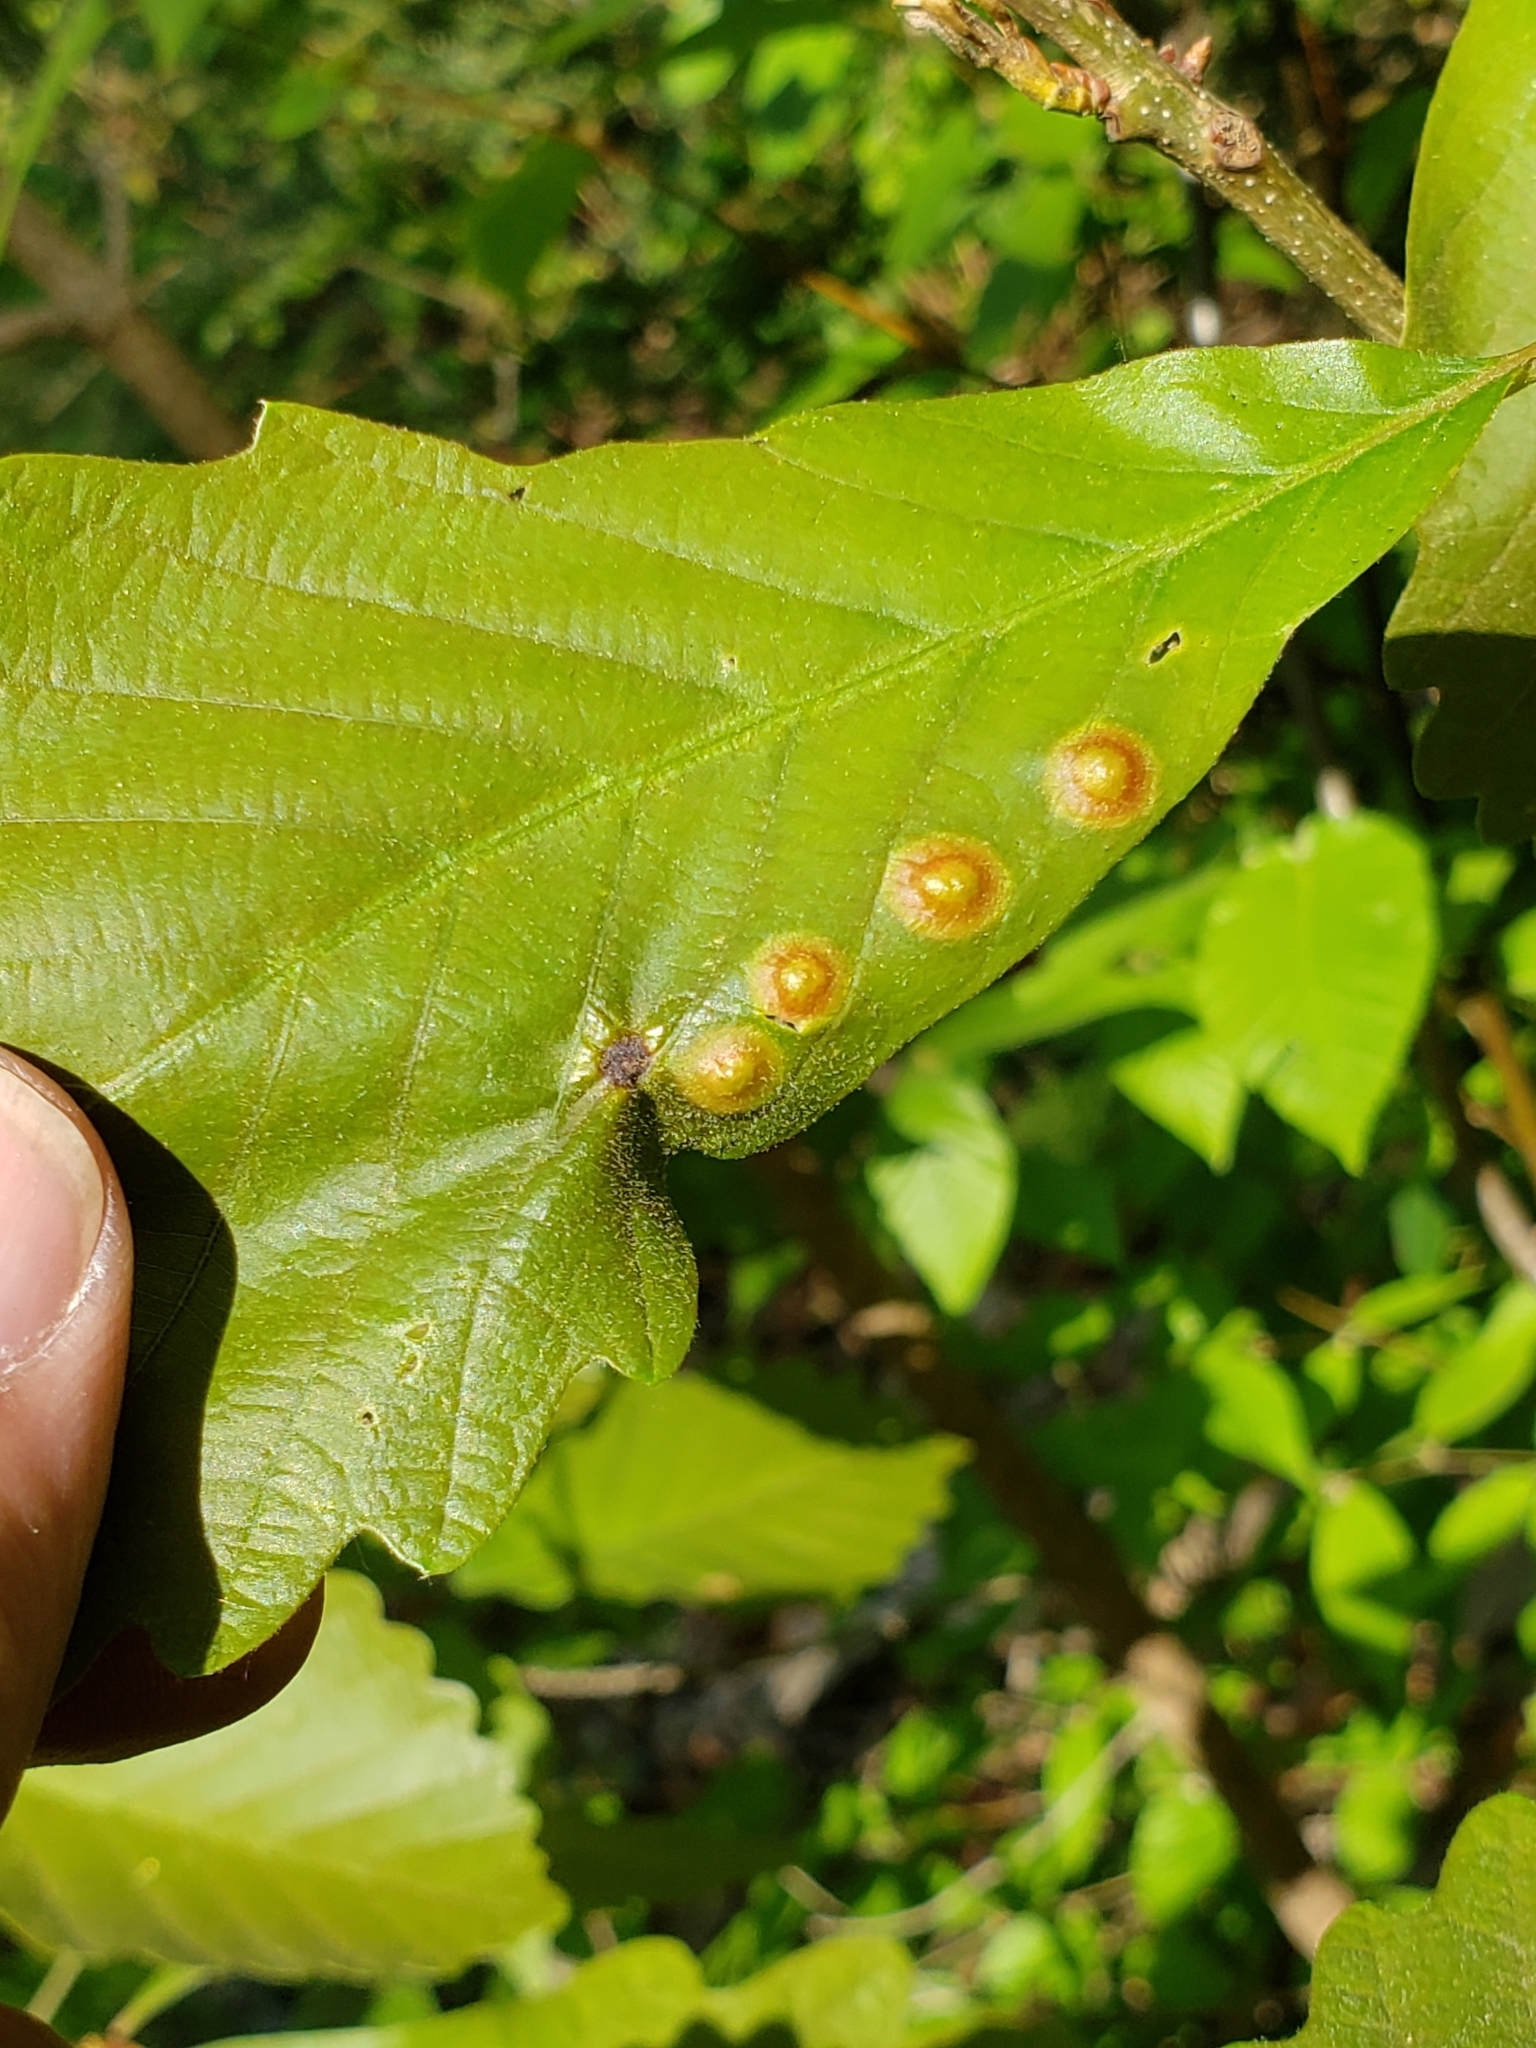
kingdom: Animalia
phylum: Arthropoda
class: Insecta
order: Hymenoptera
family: Cynipidae
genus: Callirhytis
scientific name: Callirhytis
